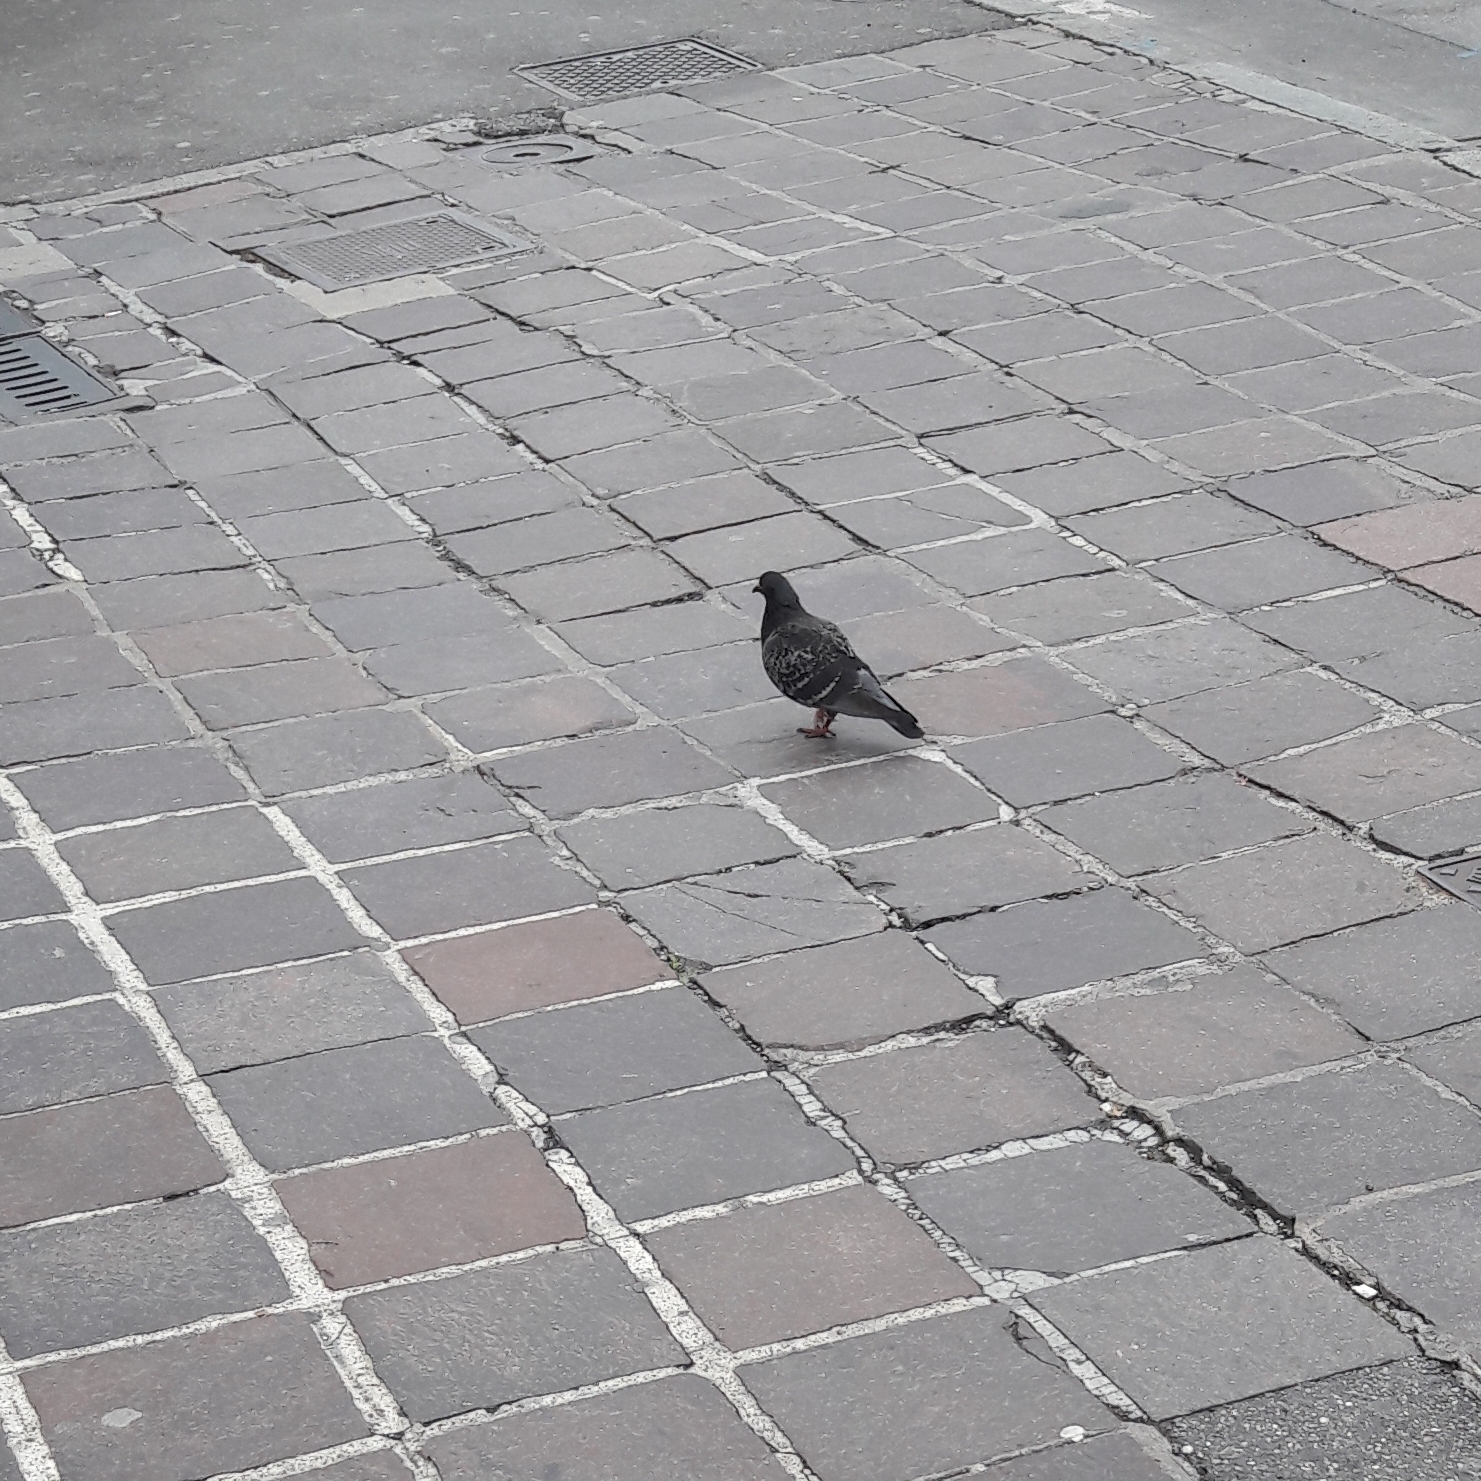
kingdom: Animalia
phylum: Chordata
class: Aves
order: Columbiformes
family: Columbidae
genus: Columba
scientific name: Columba livia
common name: Rock pigeon
